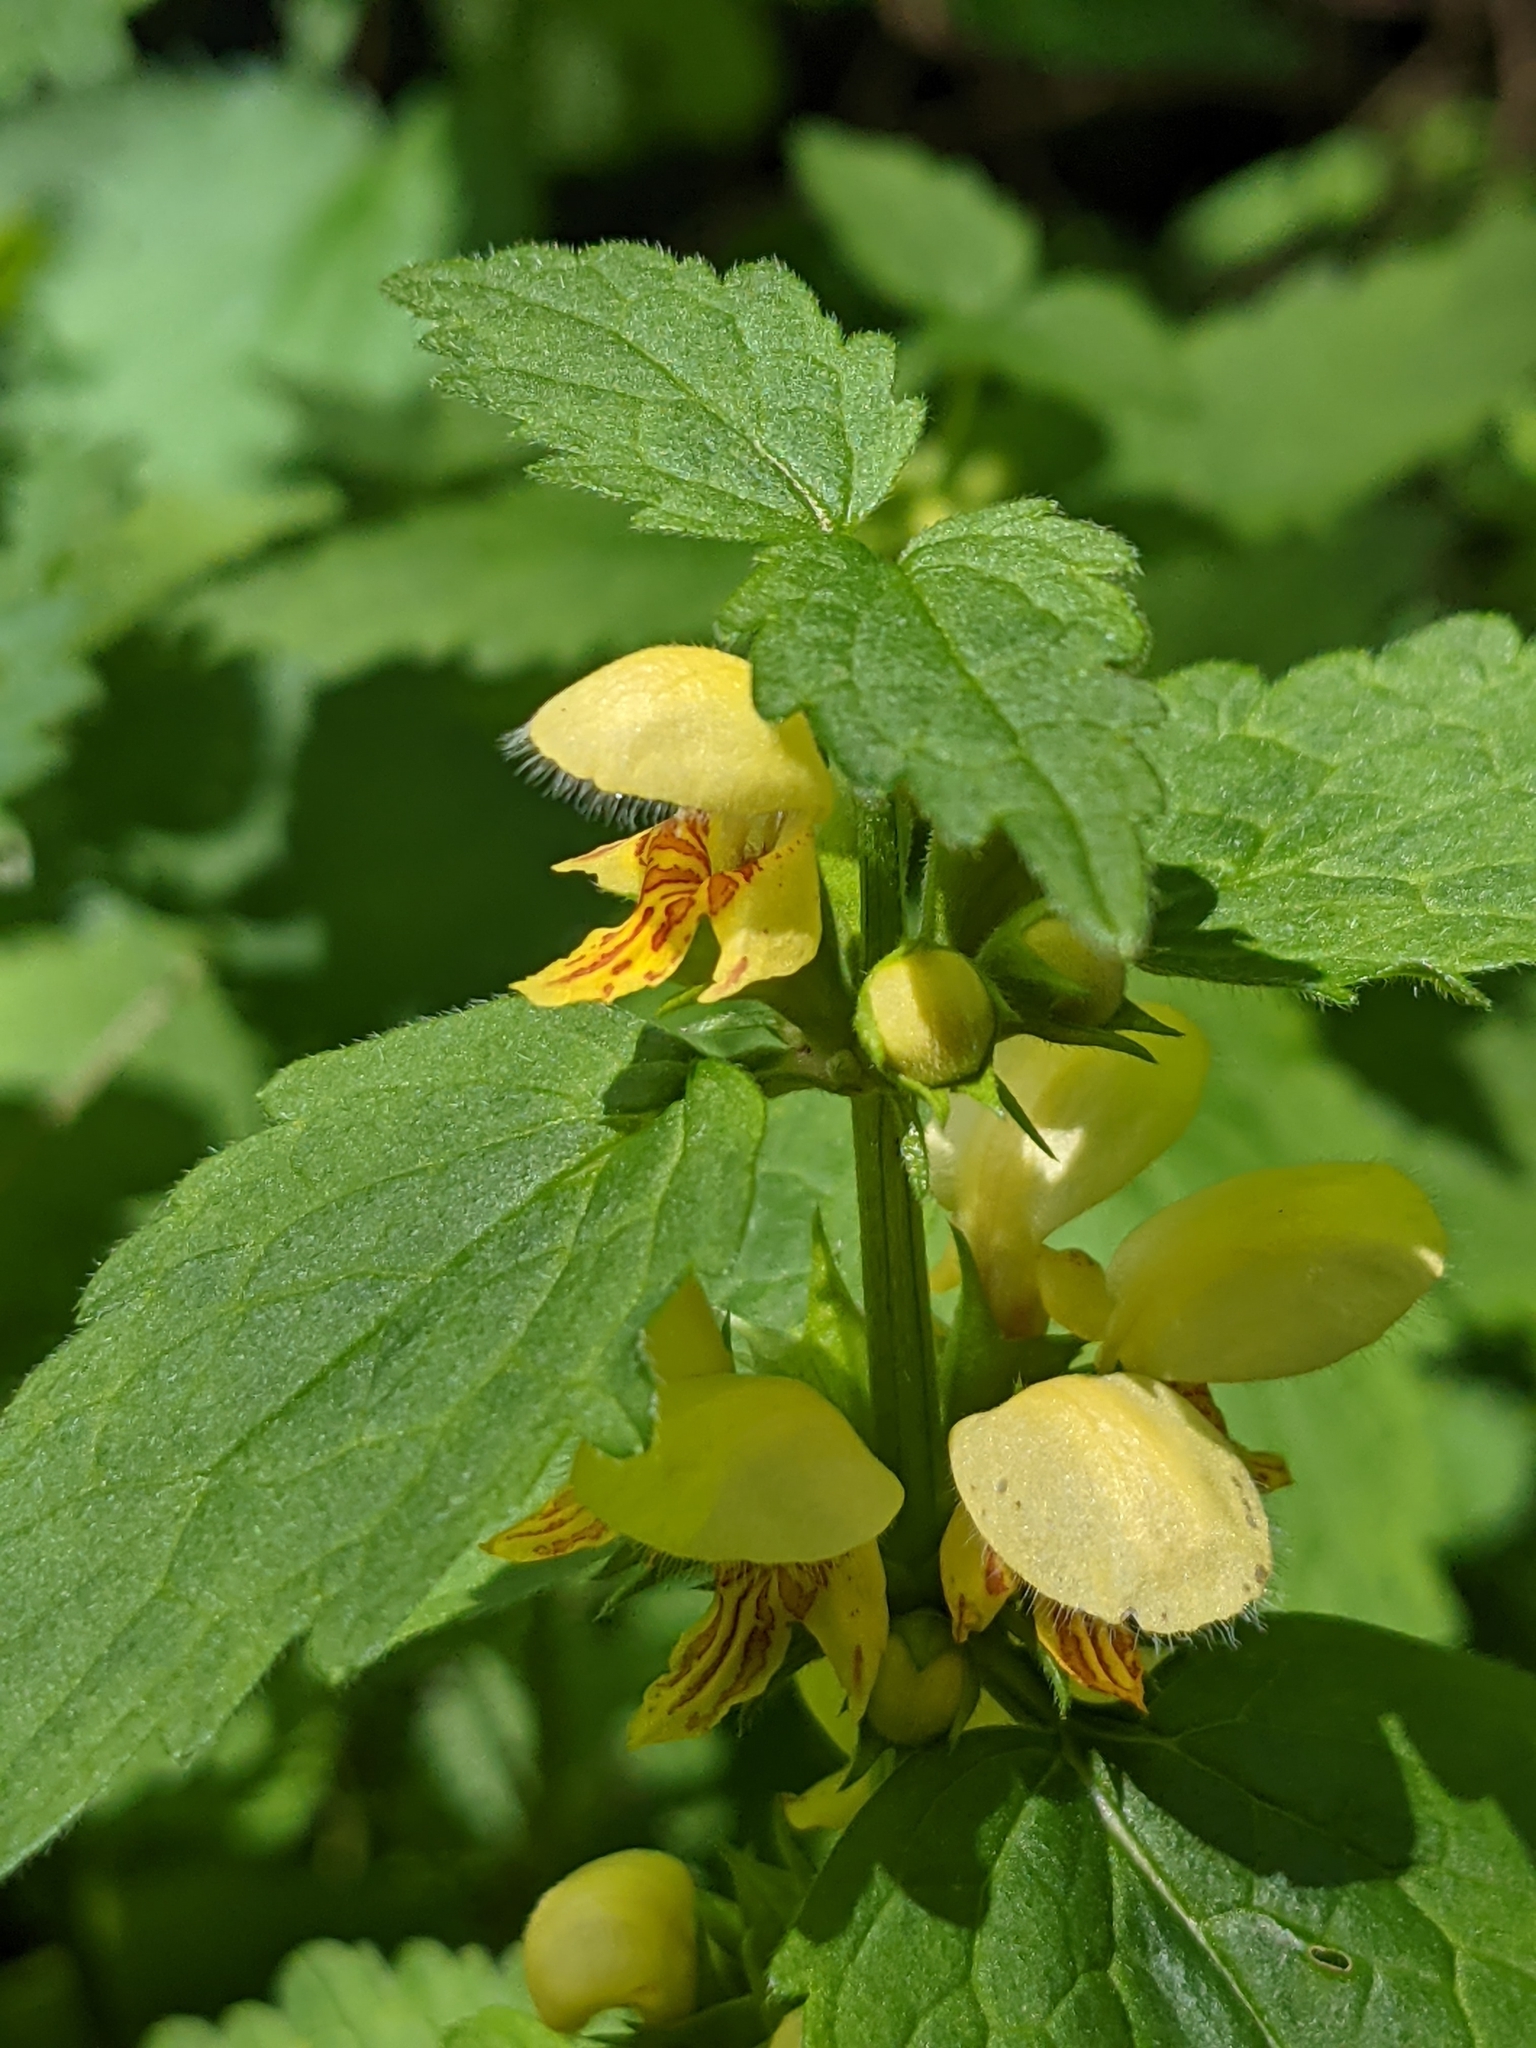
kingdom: Plantae
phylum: Tracheophyta
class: Magnoliopsida
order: Lamiales
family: Lamiaceae
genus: Lamium
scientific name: Lamium galeobdolon
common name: Yellow archangel
